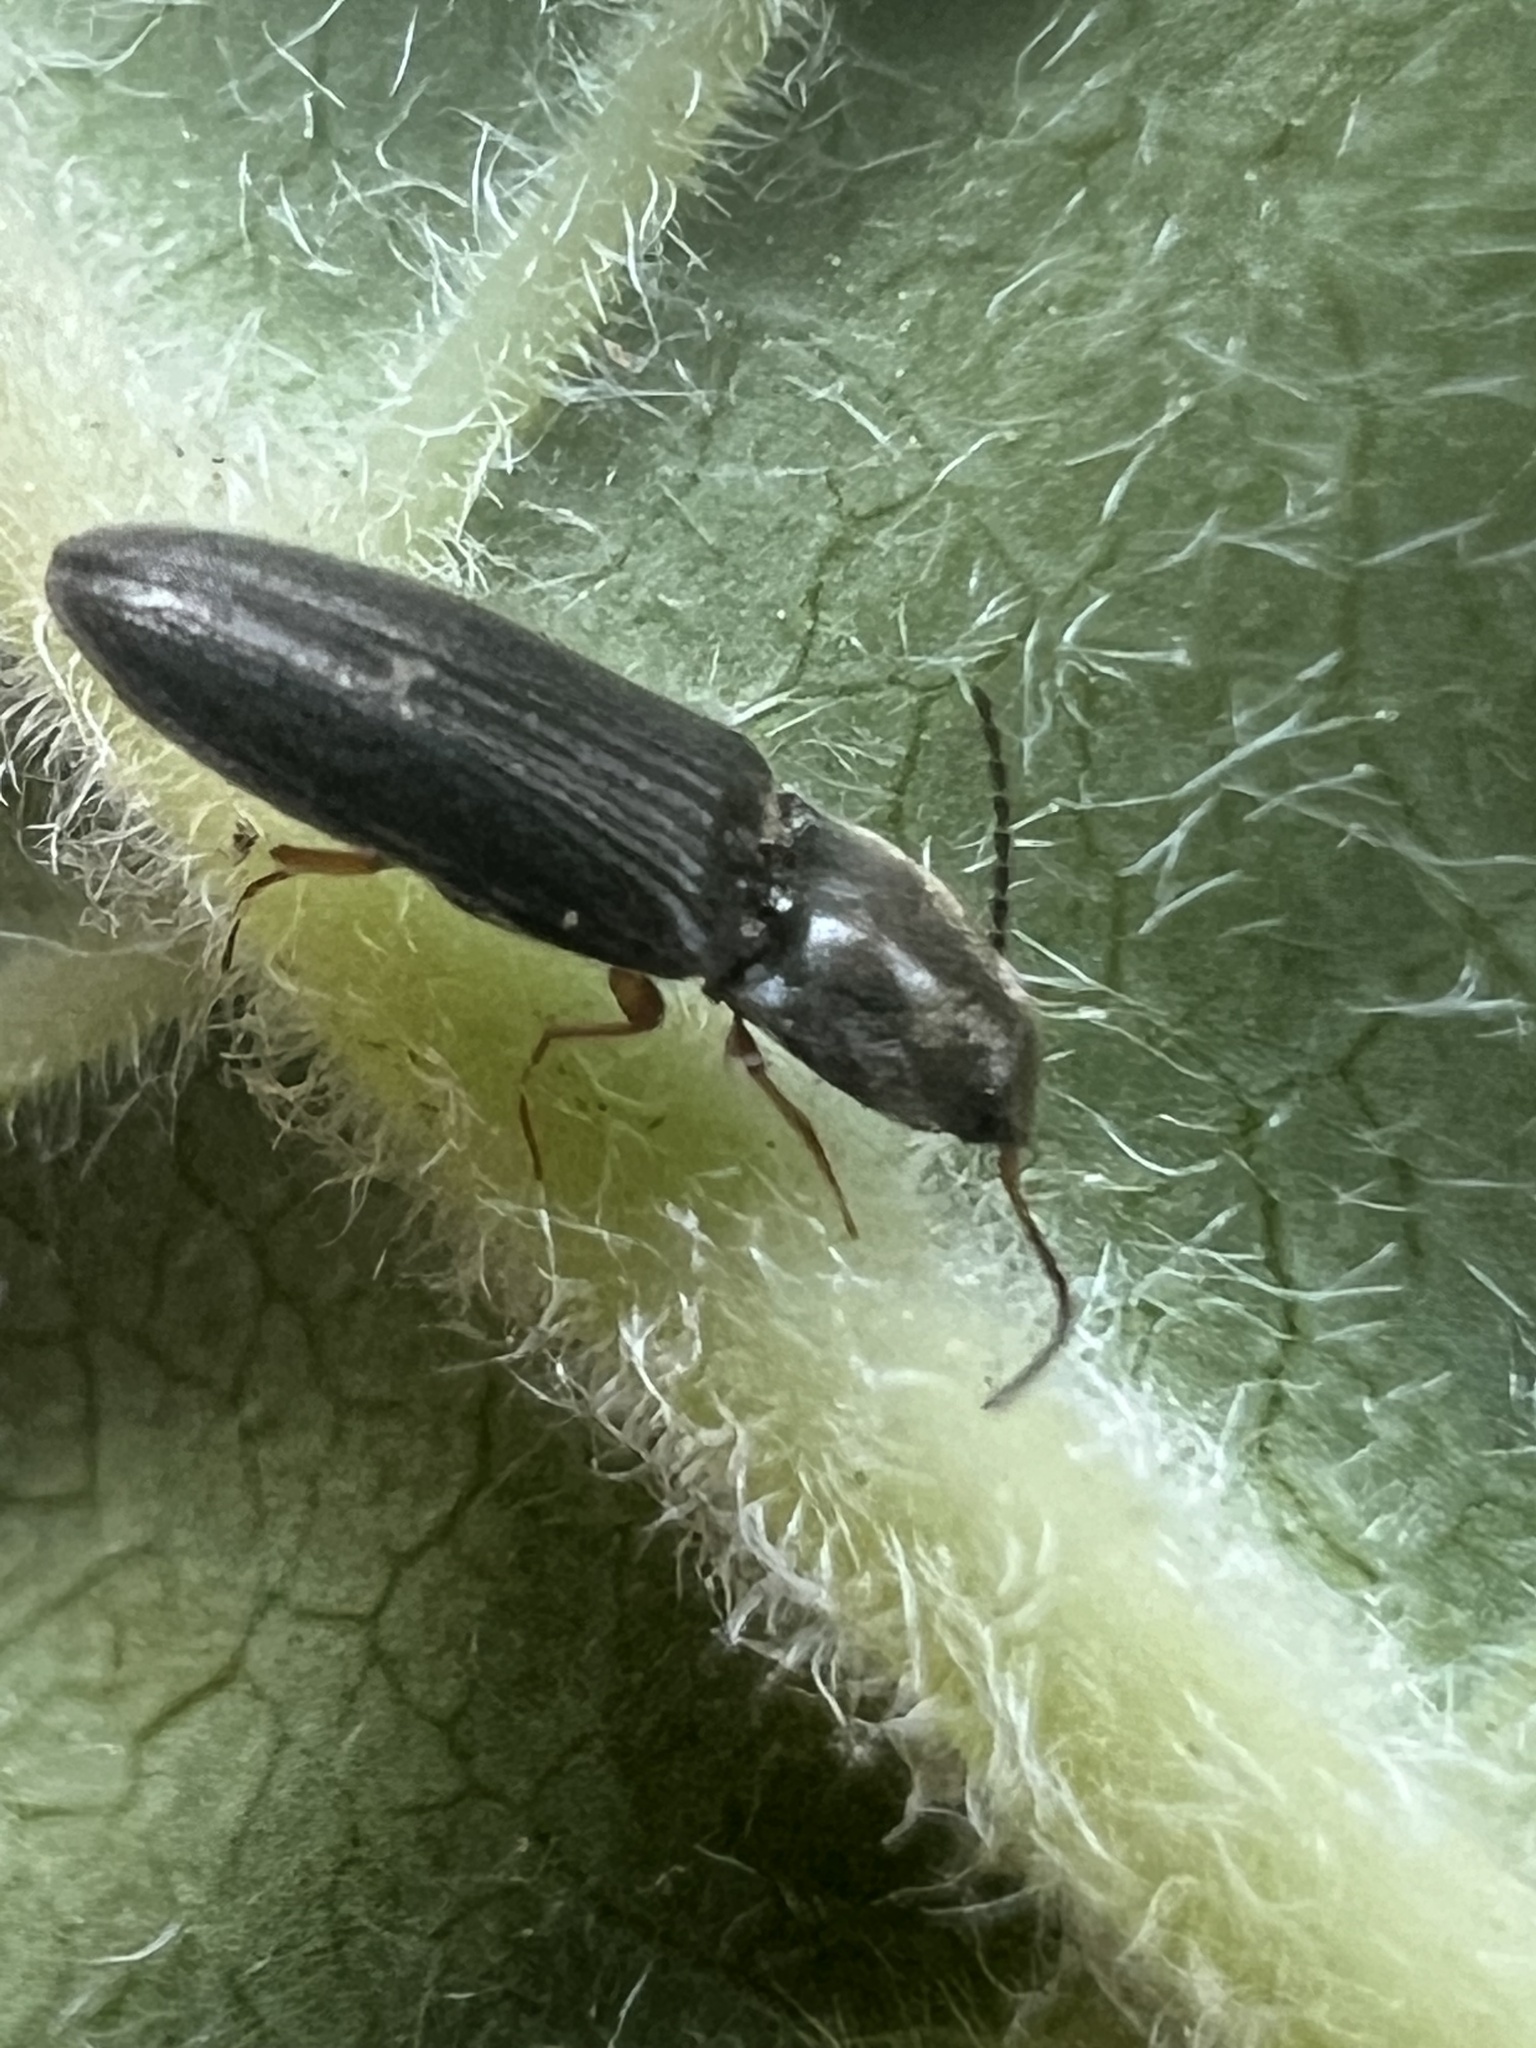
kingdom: Animalia
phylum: Arthropoda
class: Insecta
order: Coleoptera
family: Elateridae
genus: Limonius
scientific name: Limonius quercinus
